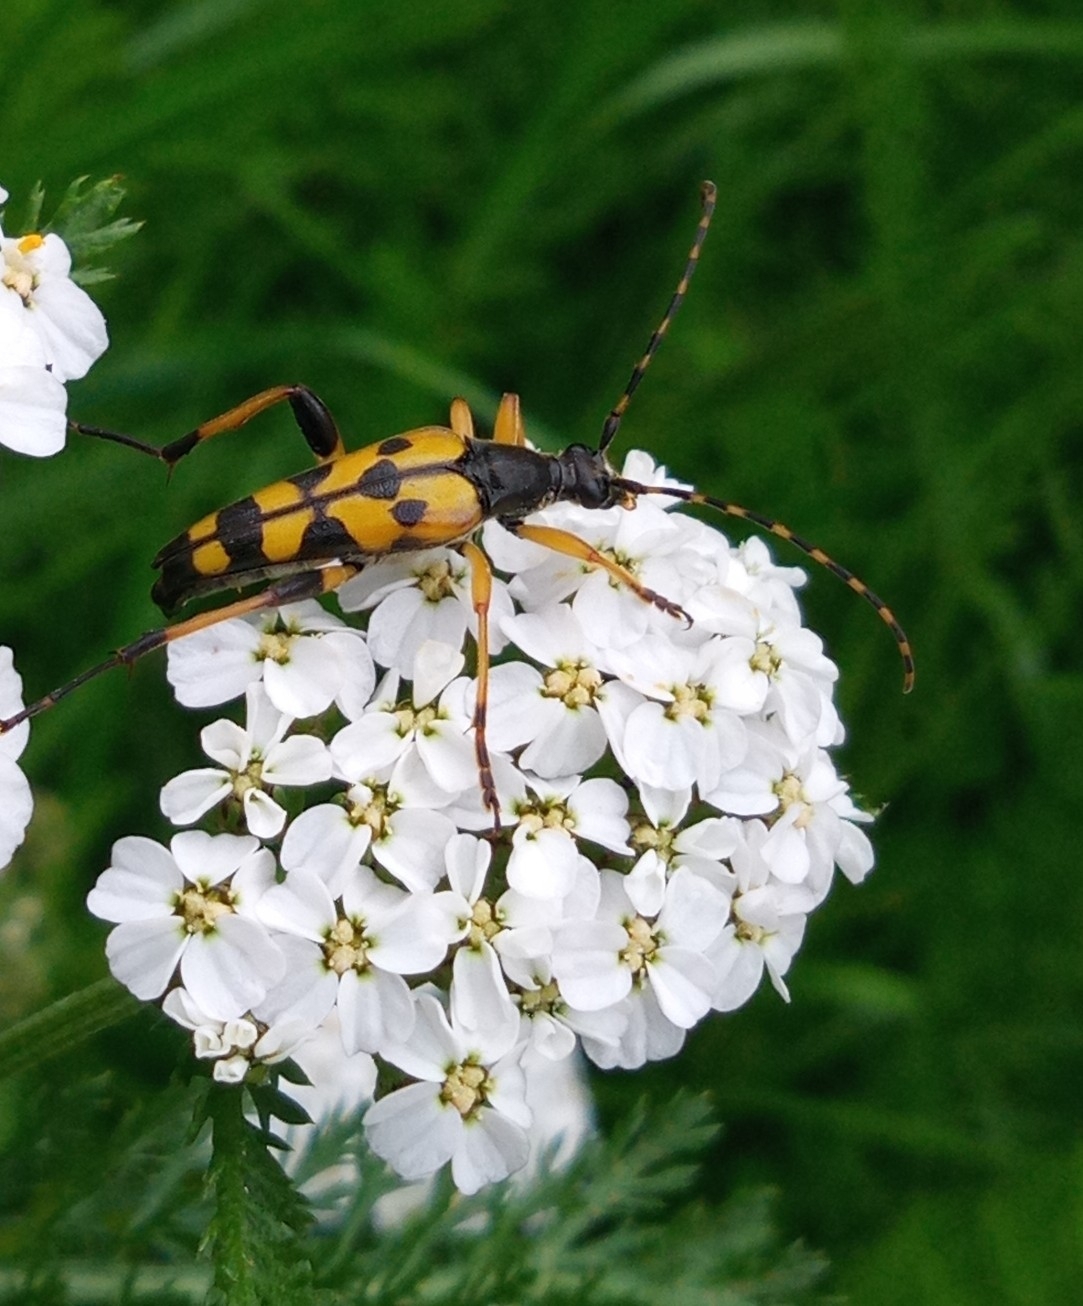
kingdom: Animalia
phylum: Arthropoda
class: Insecta
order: Coleoptera
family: Cerambycidae
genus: Rutpela
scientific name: Rutpela maculata
